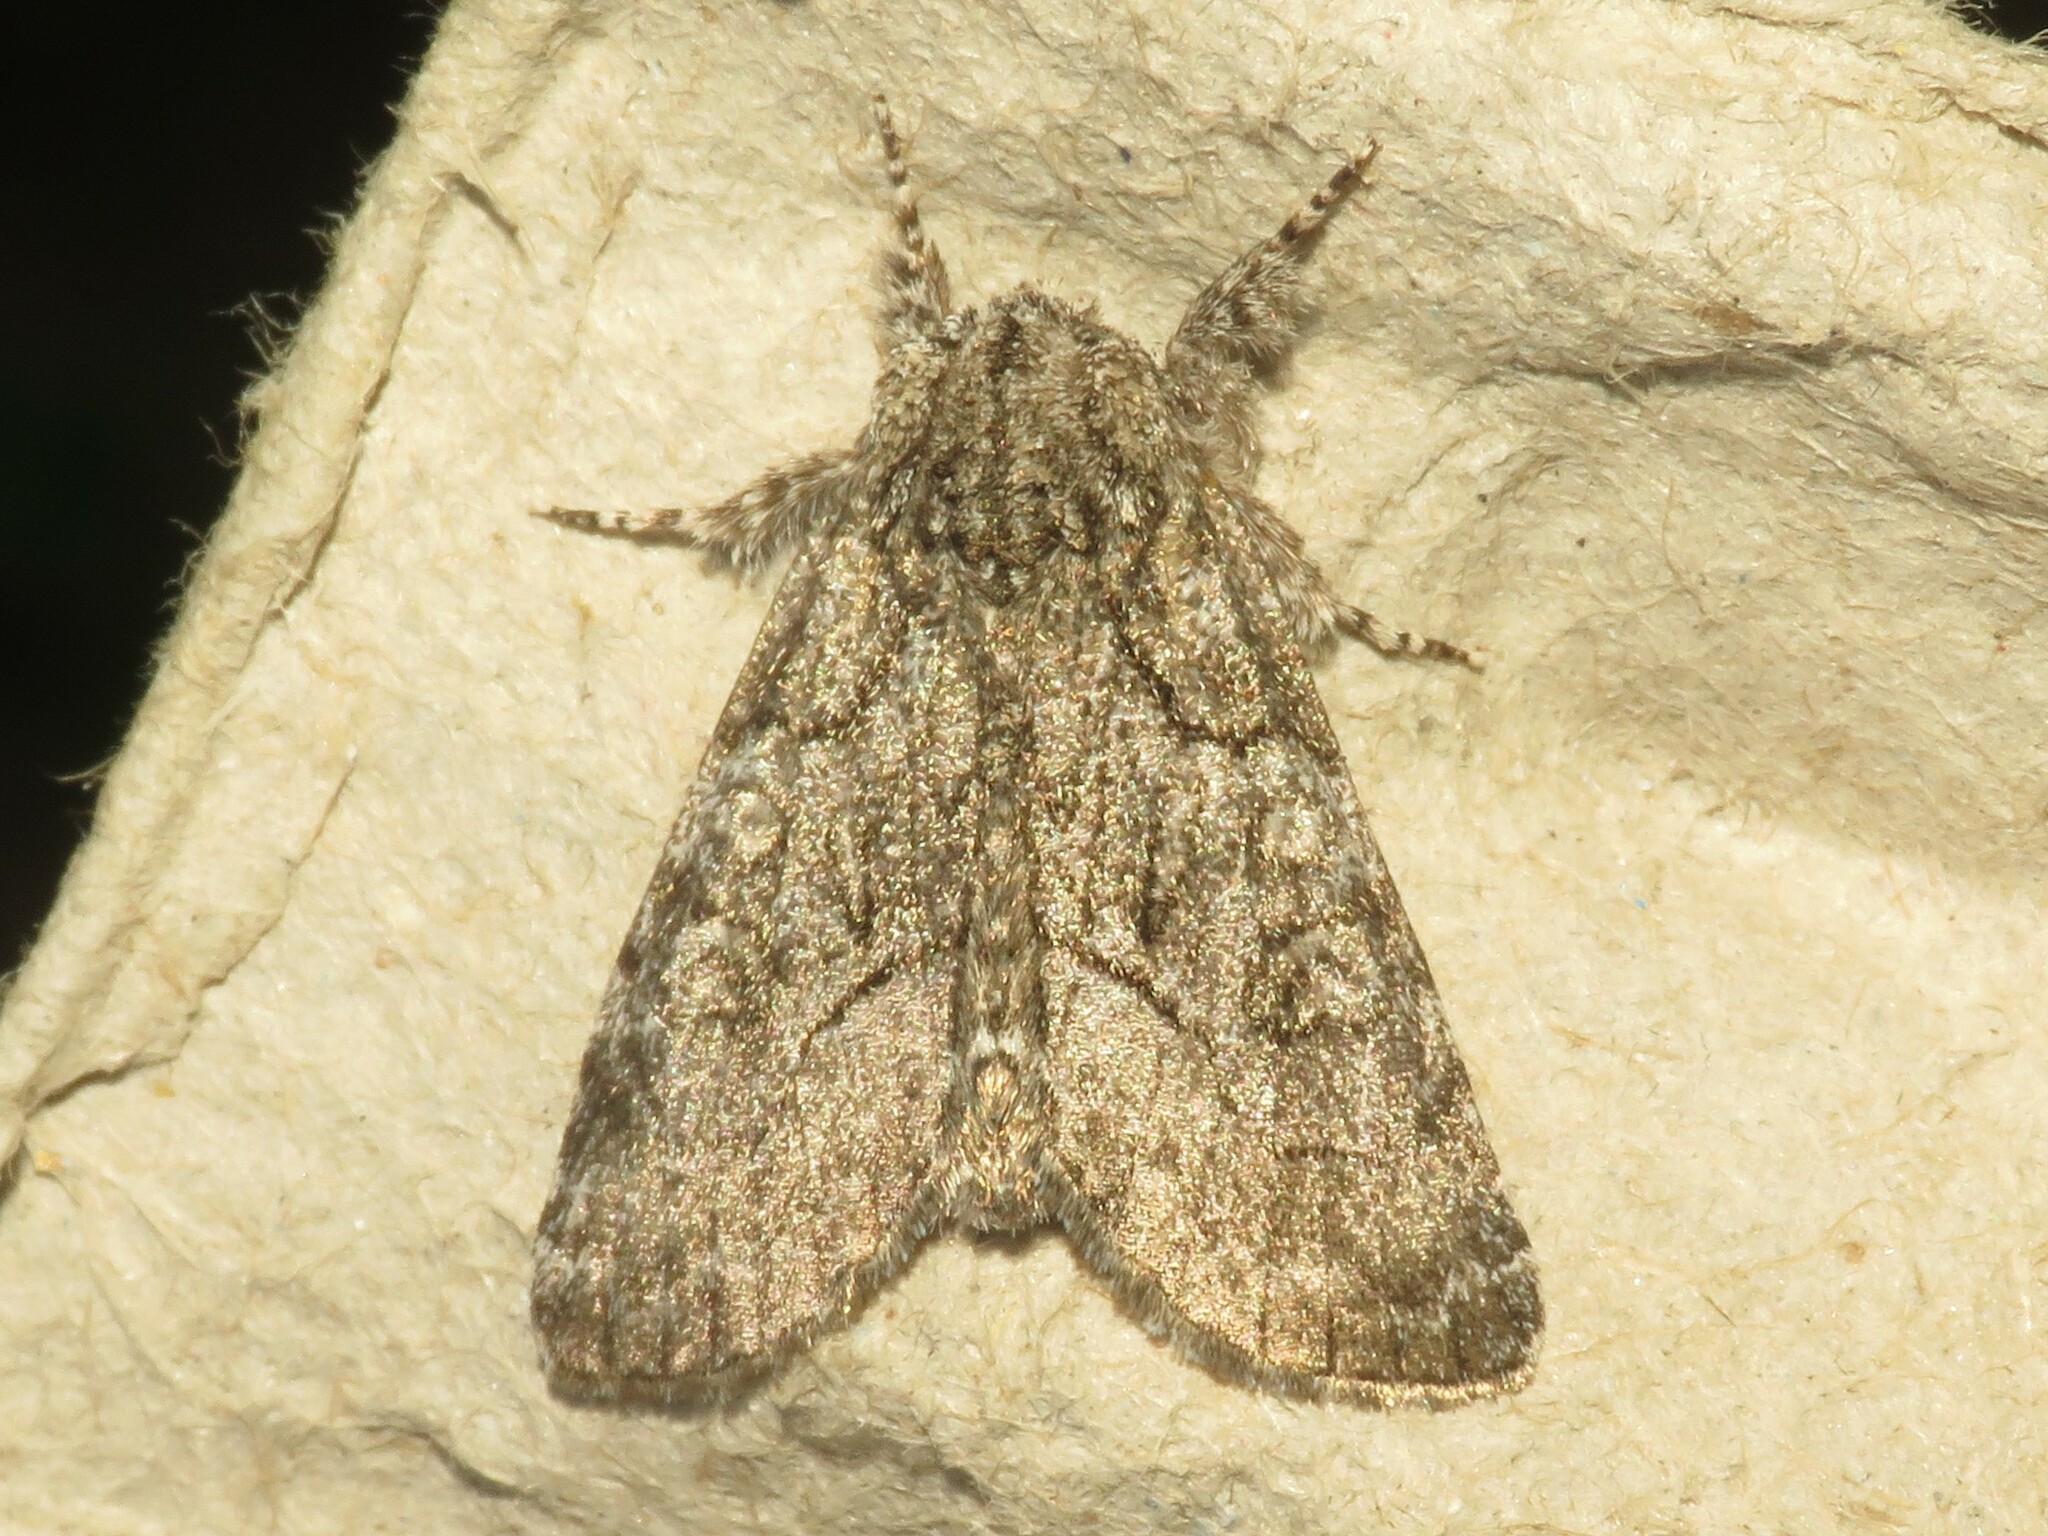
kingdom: Animalia
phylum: Arthropoda
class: Insecta
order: Lepidoptera
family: Noctuidae
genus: Raphia
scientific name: Raphia frater
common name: Brother
